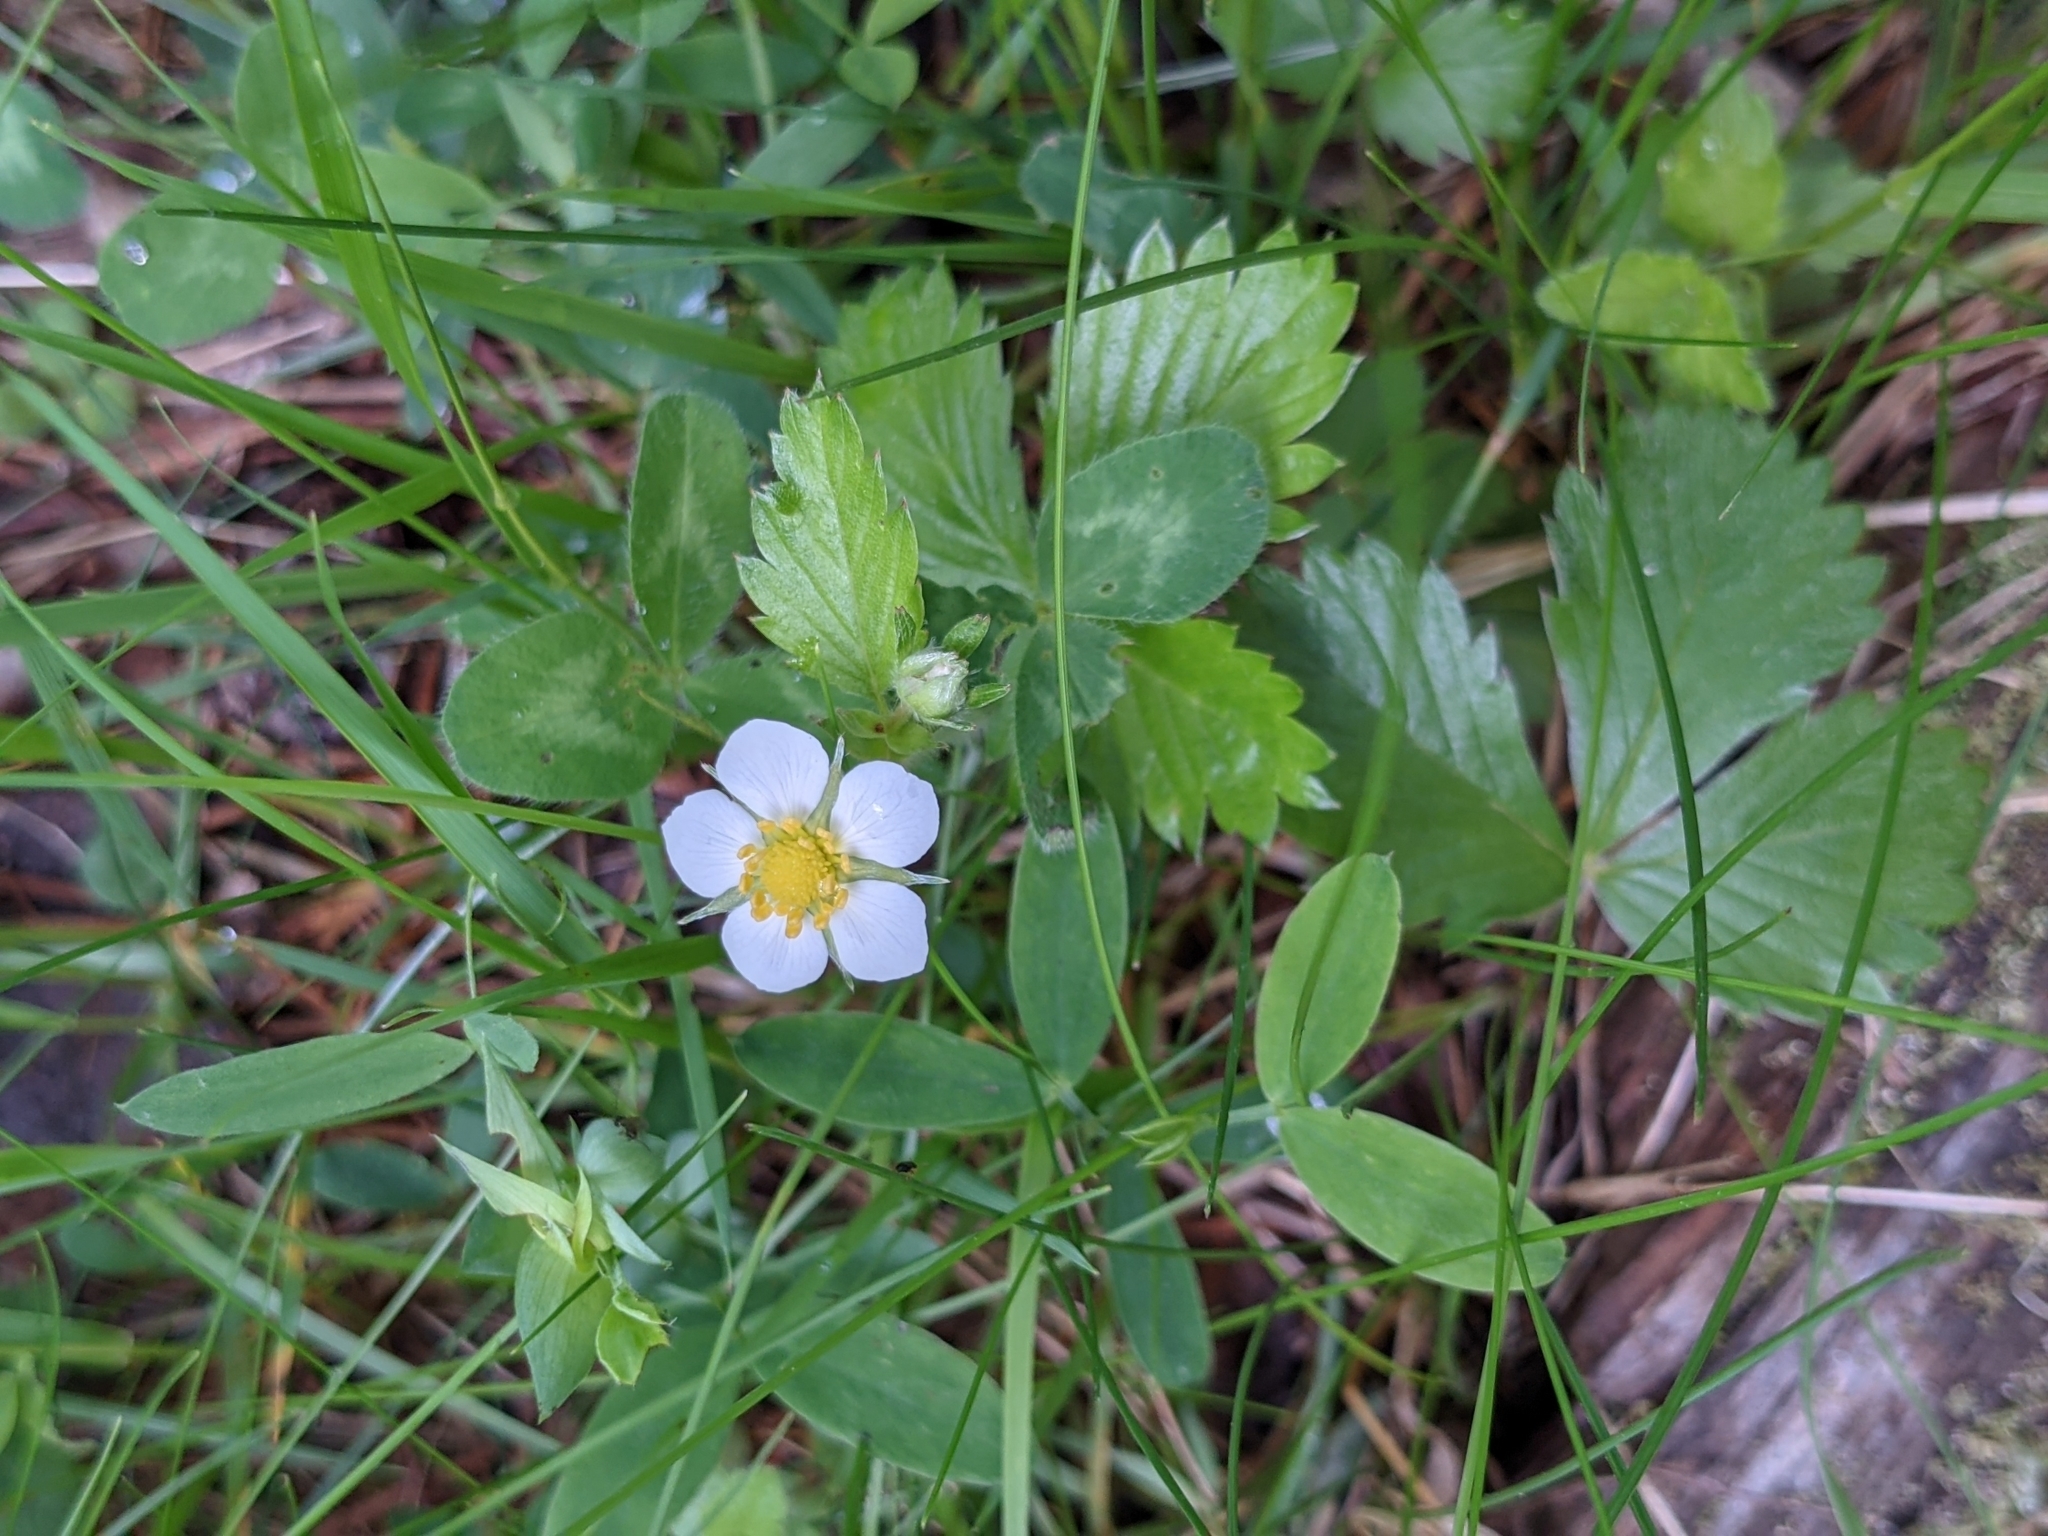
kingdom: Plantae
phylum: Tracheophyta
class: Magnoliopsida
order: Rosales
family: Rosaceae
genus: Fragaria
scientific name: Fragaria vesca
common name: Wild strawberry
